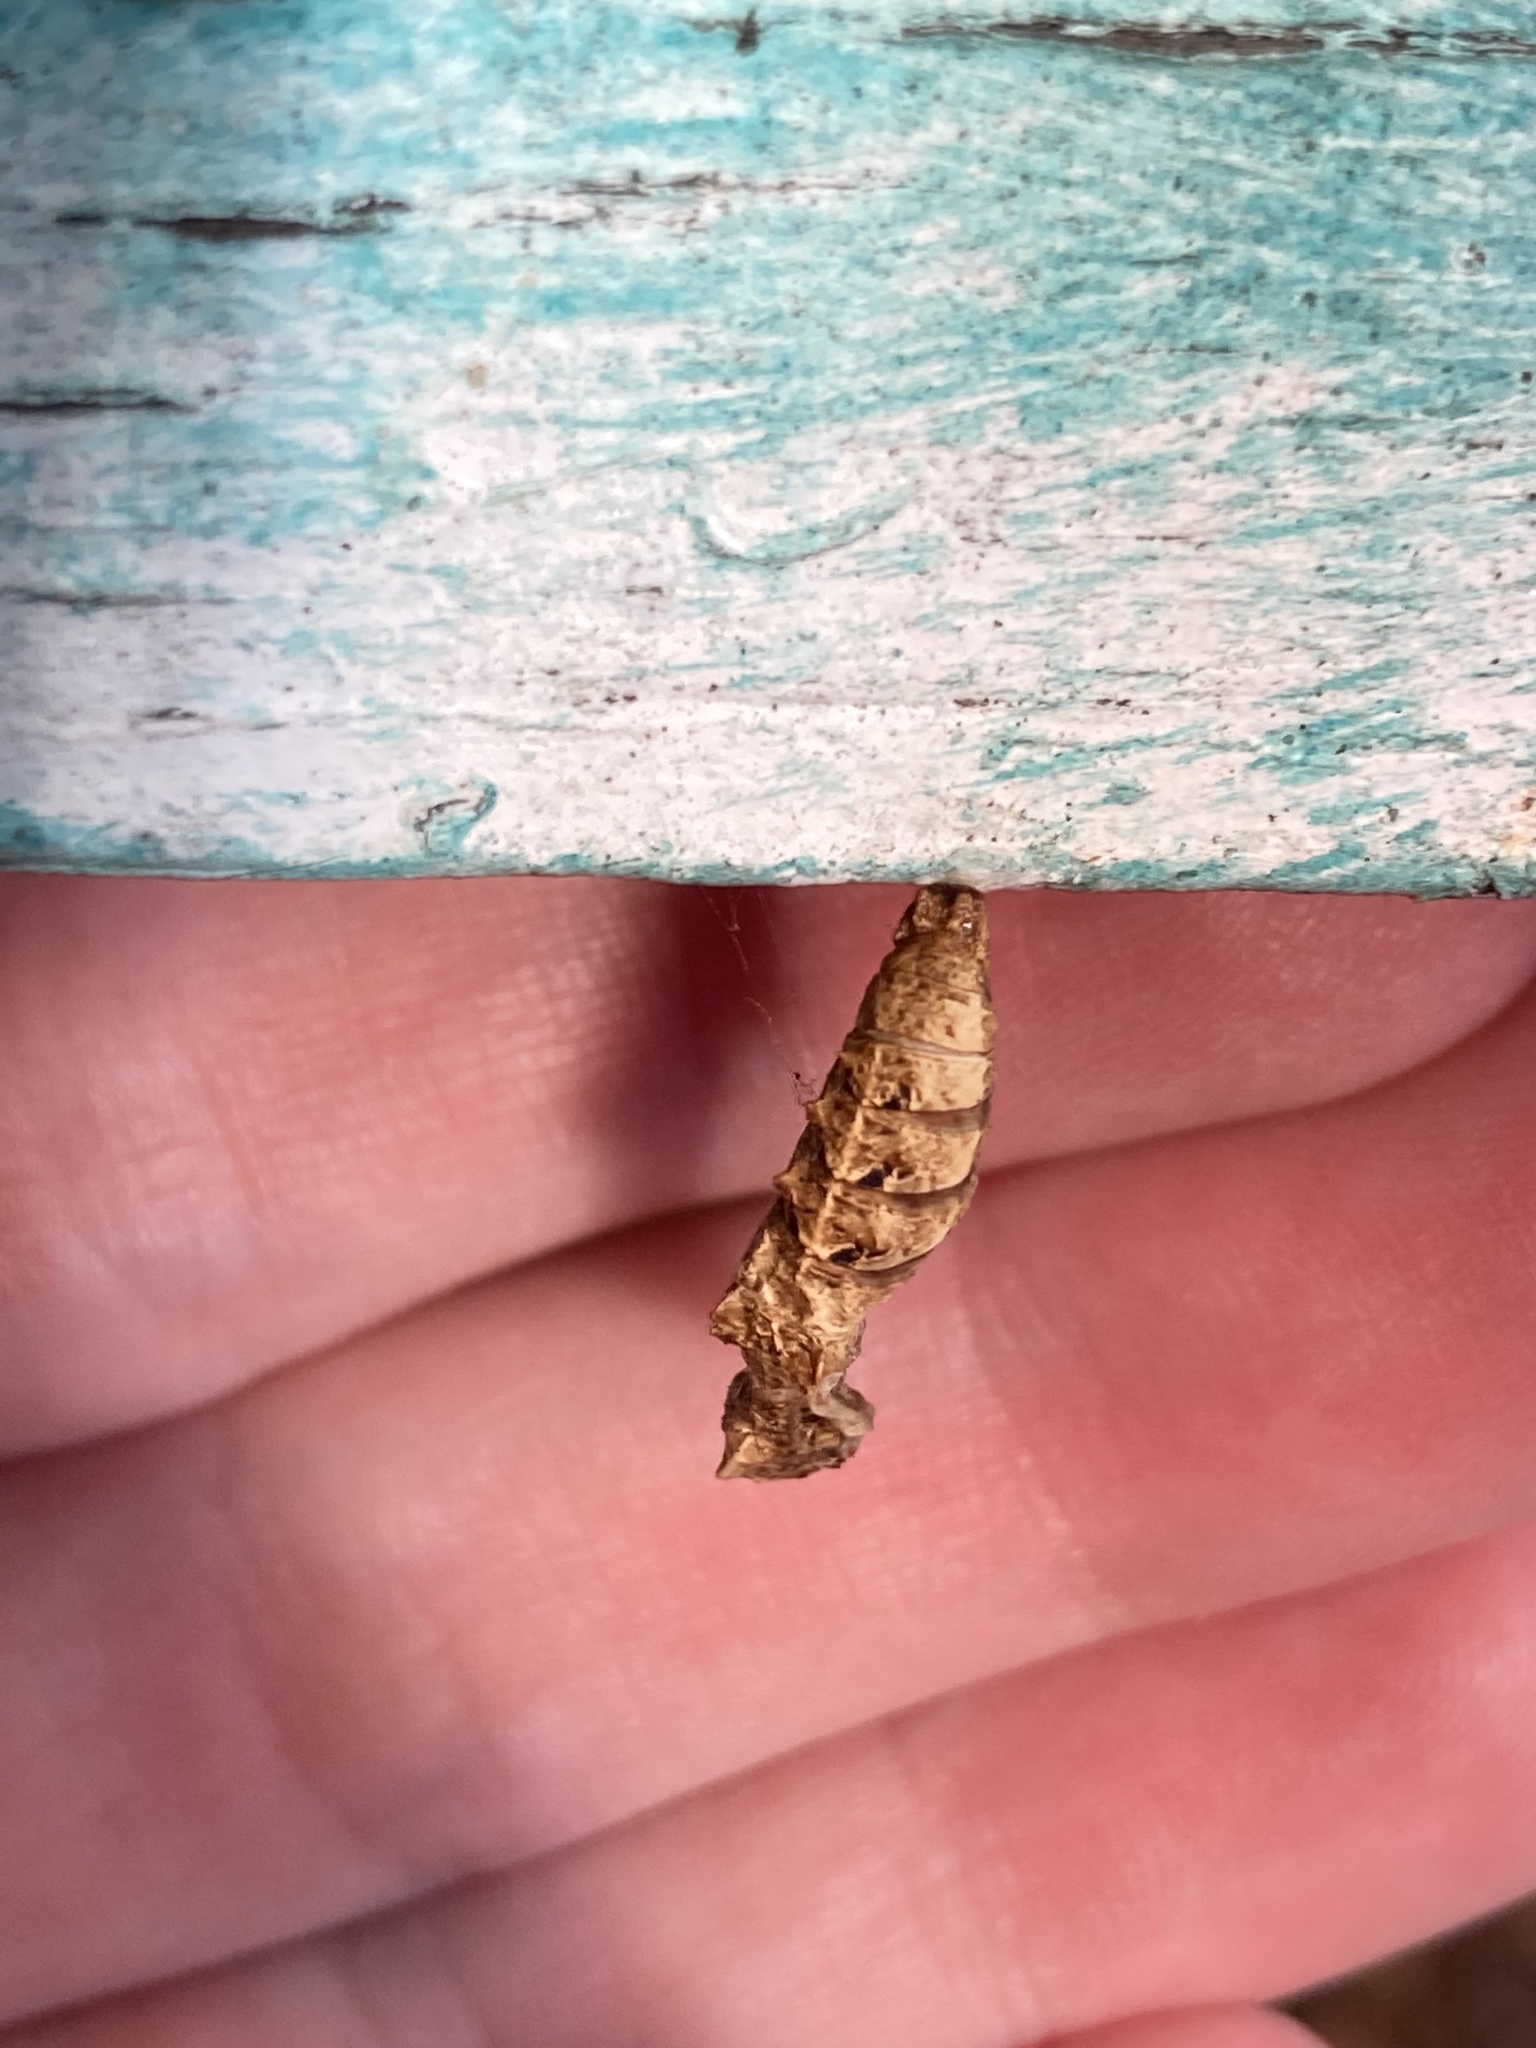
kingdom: Animalia
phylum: Arthropoda
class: Insecta
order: Lepidoptera
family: Nymphalidae
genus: Dione
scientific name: Dione vanillae
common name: Gulf fritillary
